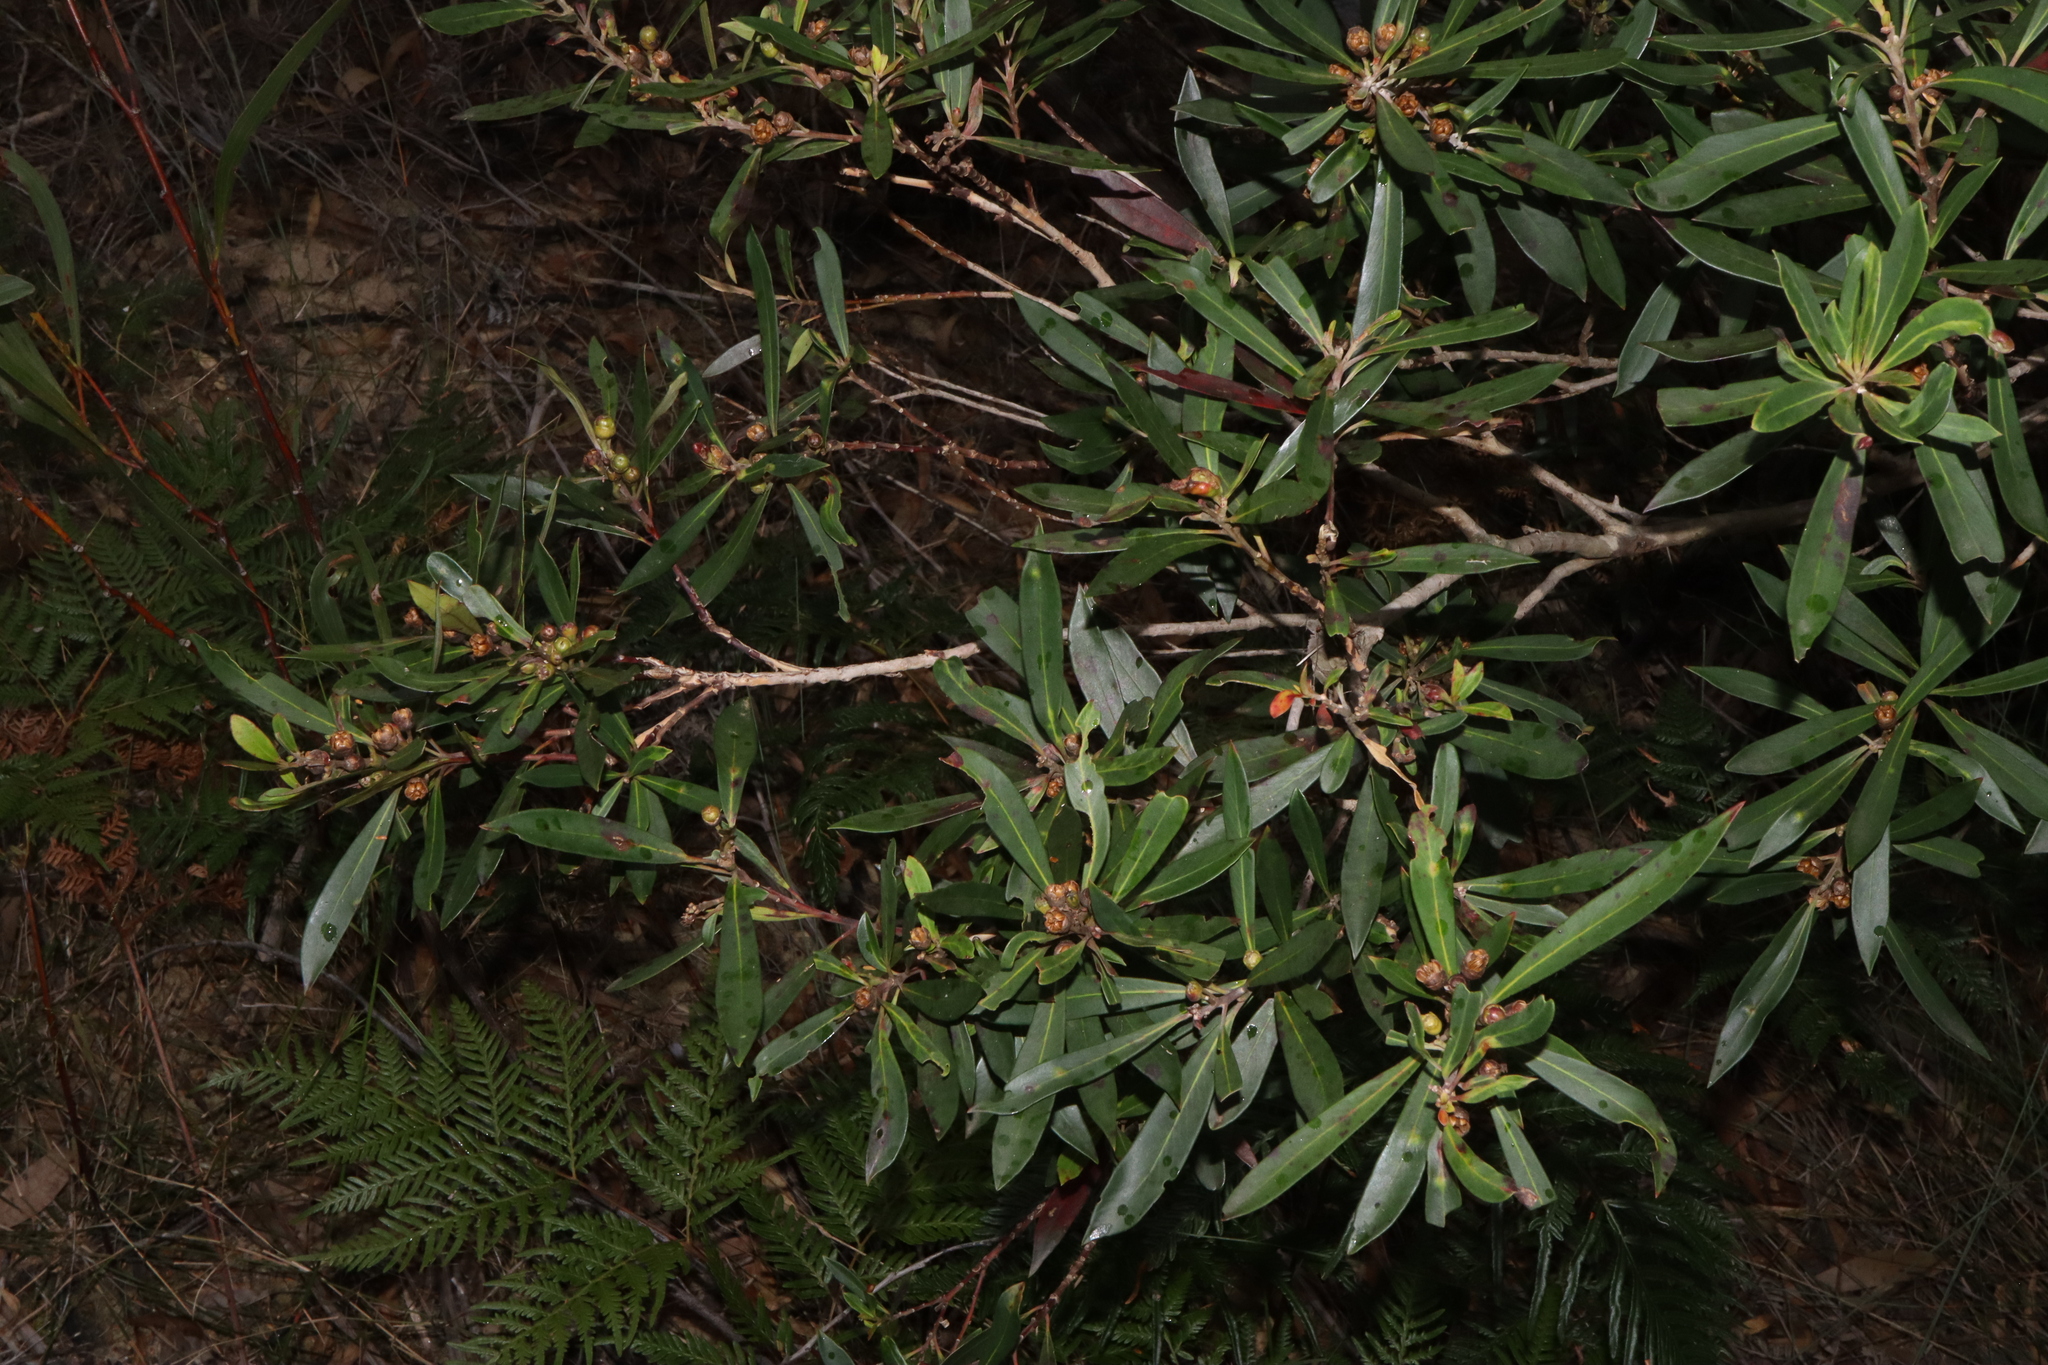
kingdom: Plantae
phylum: Tracheophyta
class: Magnoliopsida
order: Myrtales
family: Myrtaceae
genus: Tristaniopsis
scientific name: Tristaniopsis laurina
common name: Water-gum
